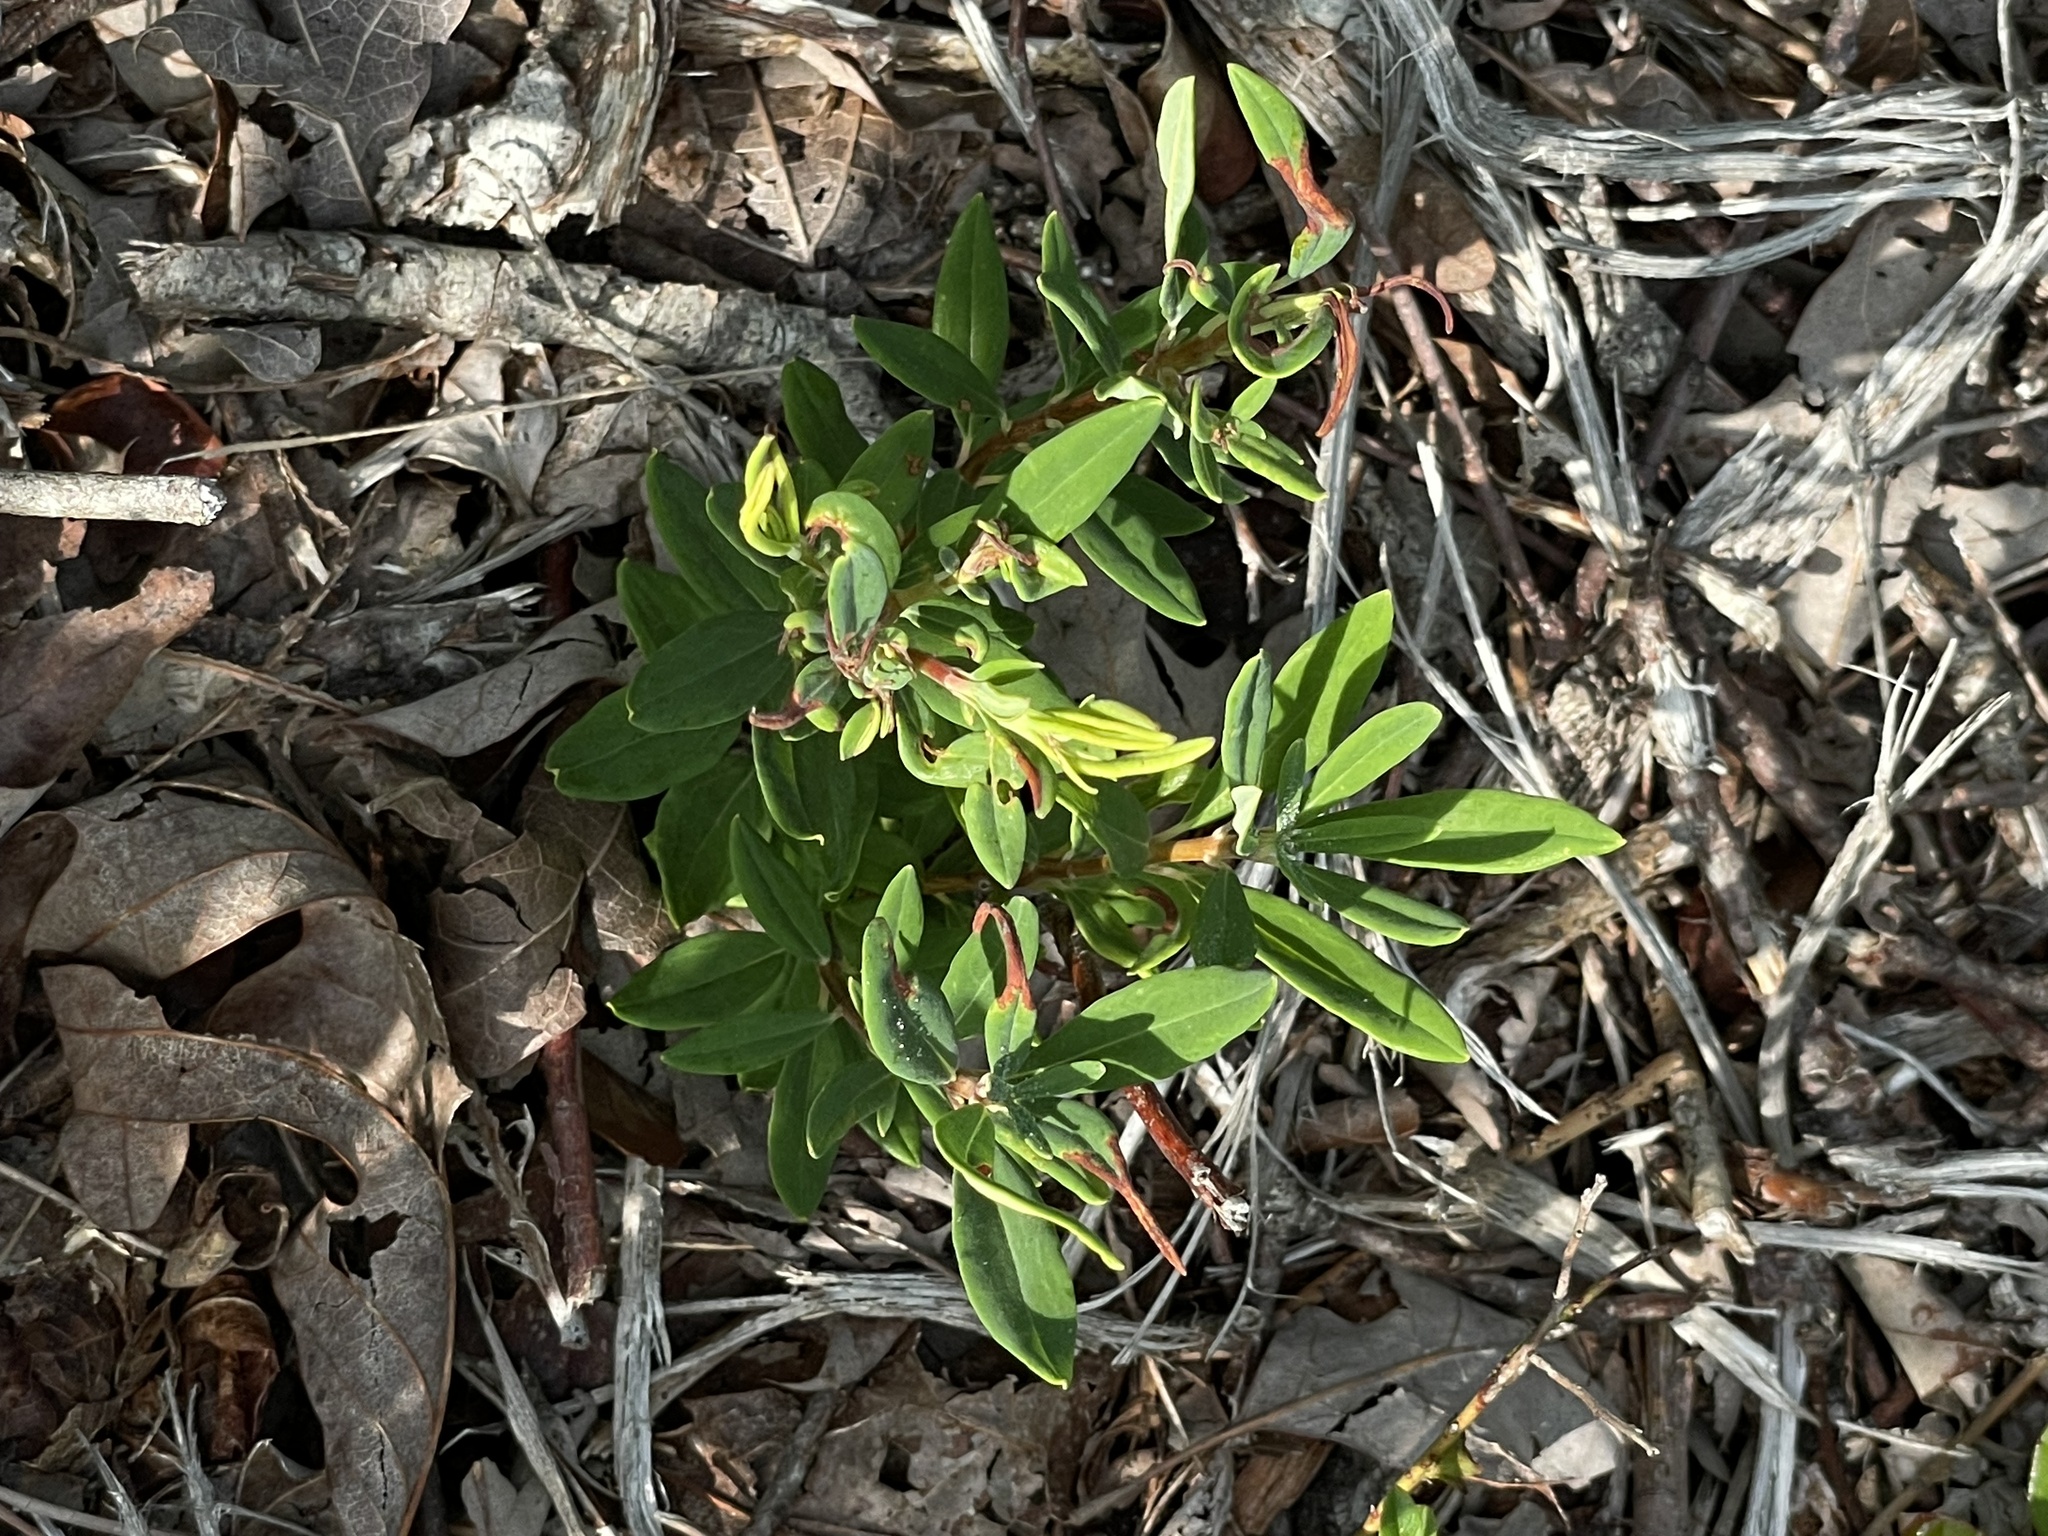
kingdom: Plantae
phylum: Tracheophyta
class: Magnoliopsida
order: Ericales
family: Ericaceae
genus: Kalmia
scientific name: Kalmia angustifolia
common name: Sheep-laurel
